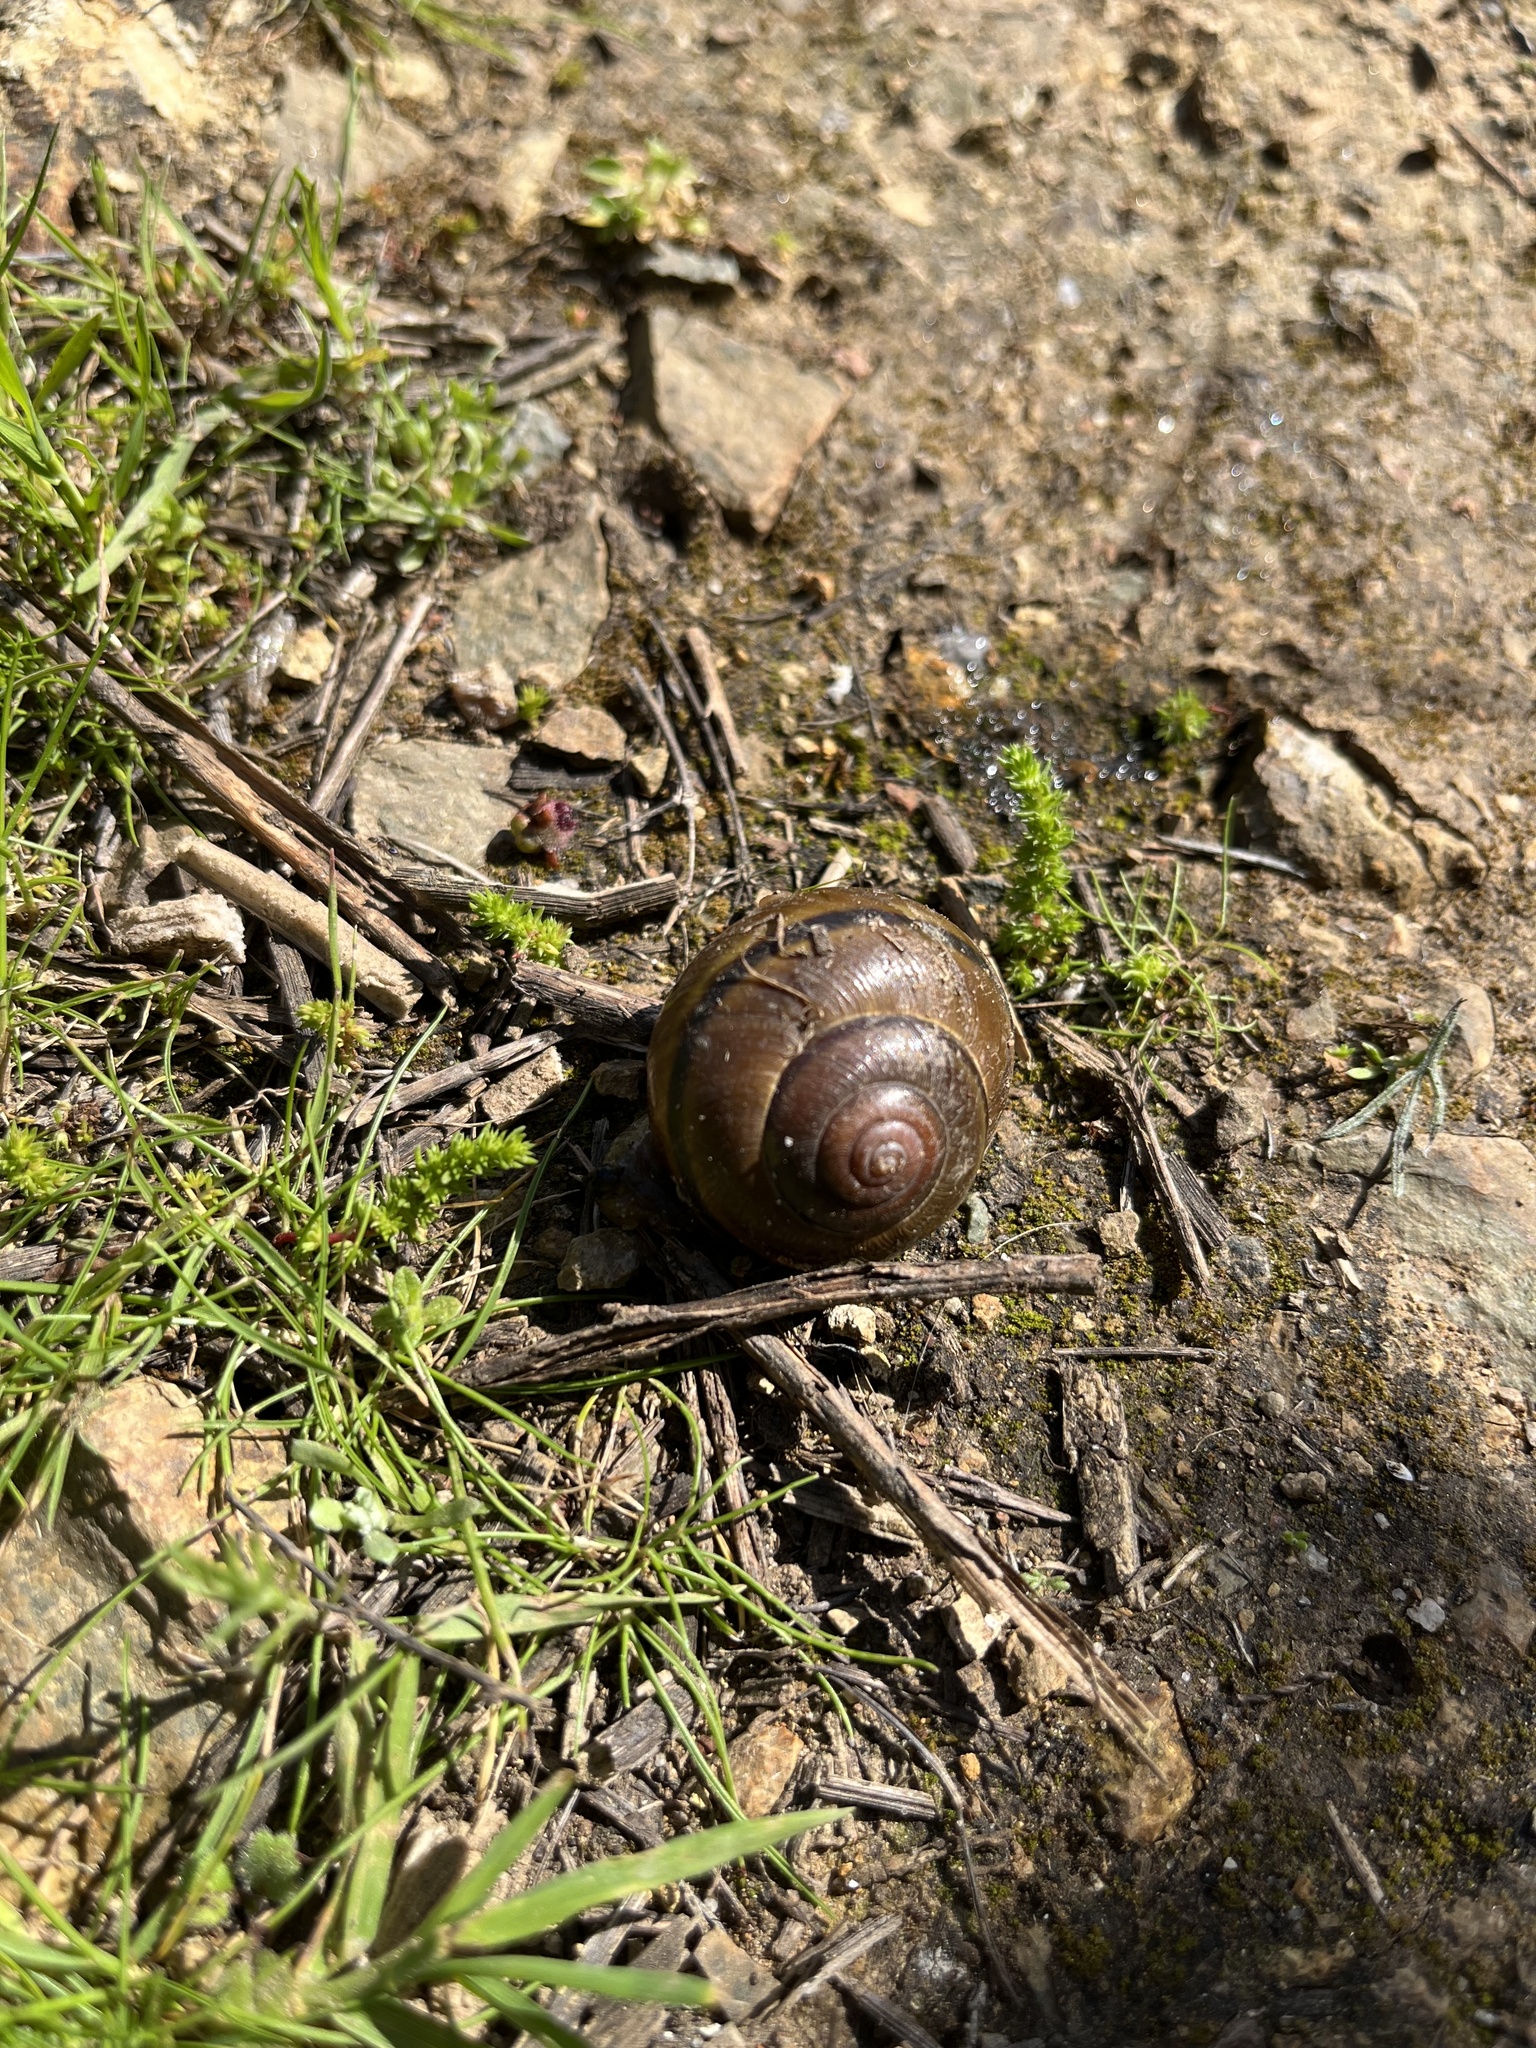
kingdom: Animalia
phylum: Mollusca
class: Gastropoda
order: Stylommatophora
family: Xanthonychidae
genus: Helminthoglypta
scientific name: Helminthoglypta tudiculata
